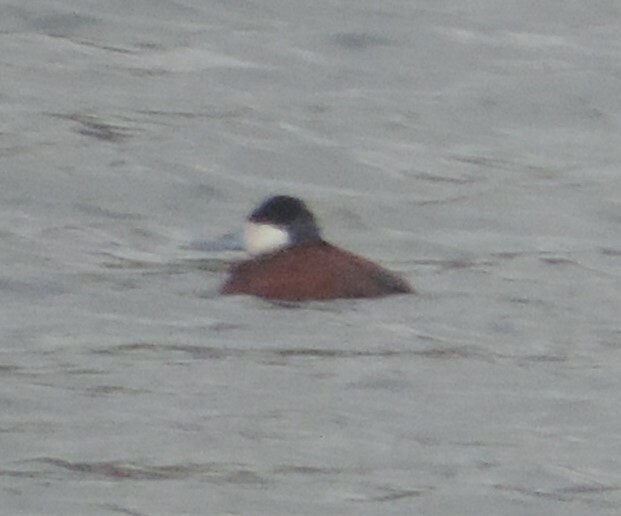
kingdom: Animalia
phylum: Chordata
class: Aves
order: Anseriformes
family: Anatidae
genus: Oxyura
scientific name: Oxyura jamaicensis
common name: Ruddy duck
